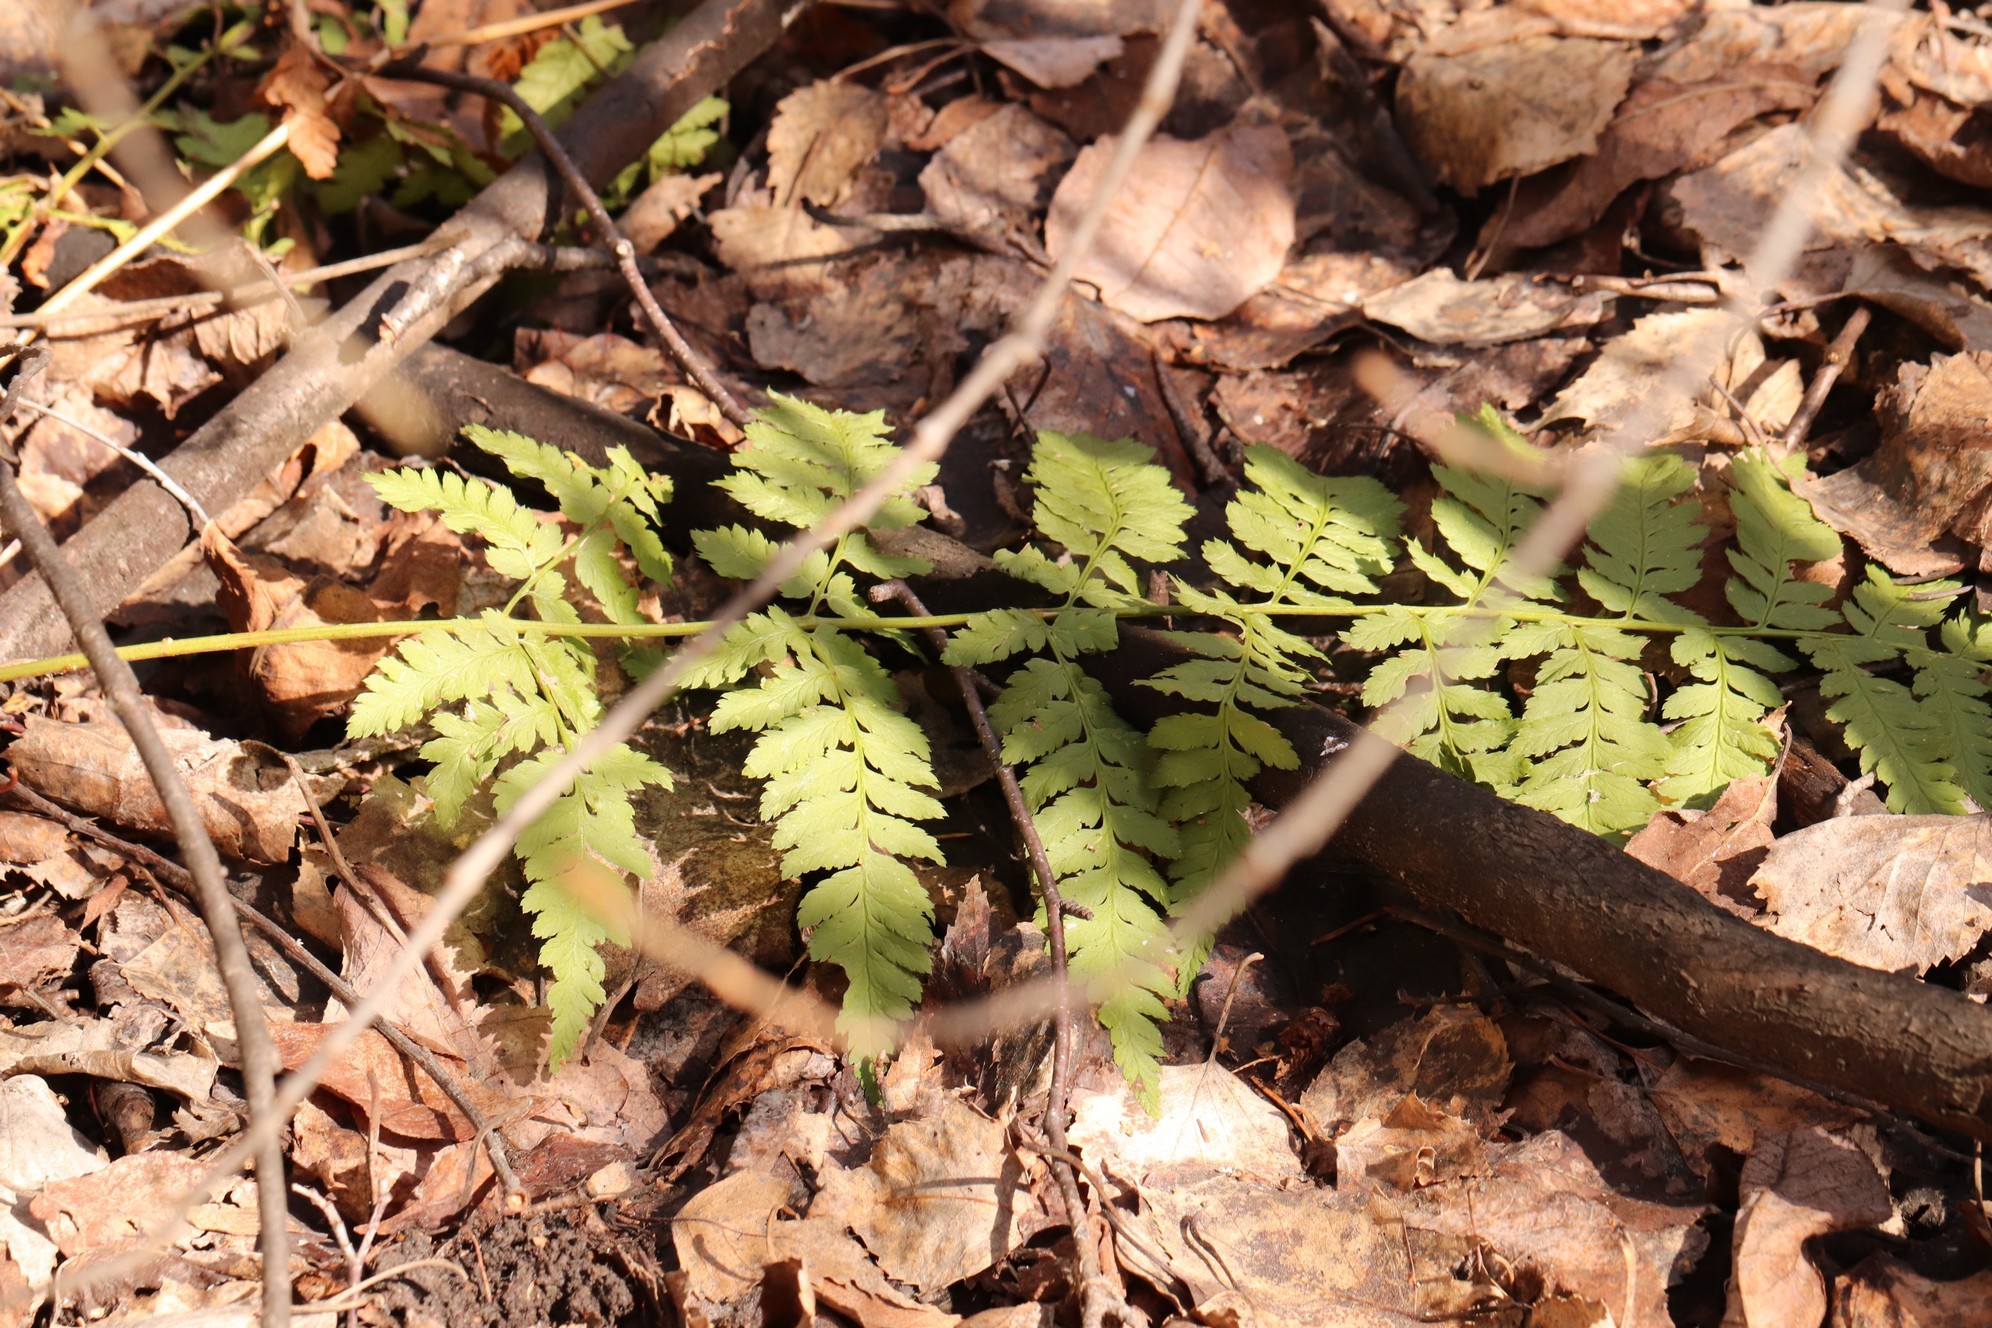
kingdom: Plantae
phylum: Tracheophyta
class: Polypodiopsida
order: Polypodiales
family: Dryopteridaceae
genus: Dryopteris
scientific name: Dryopteris carthusiana
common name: Narrow buckler-fern
